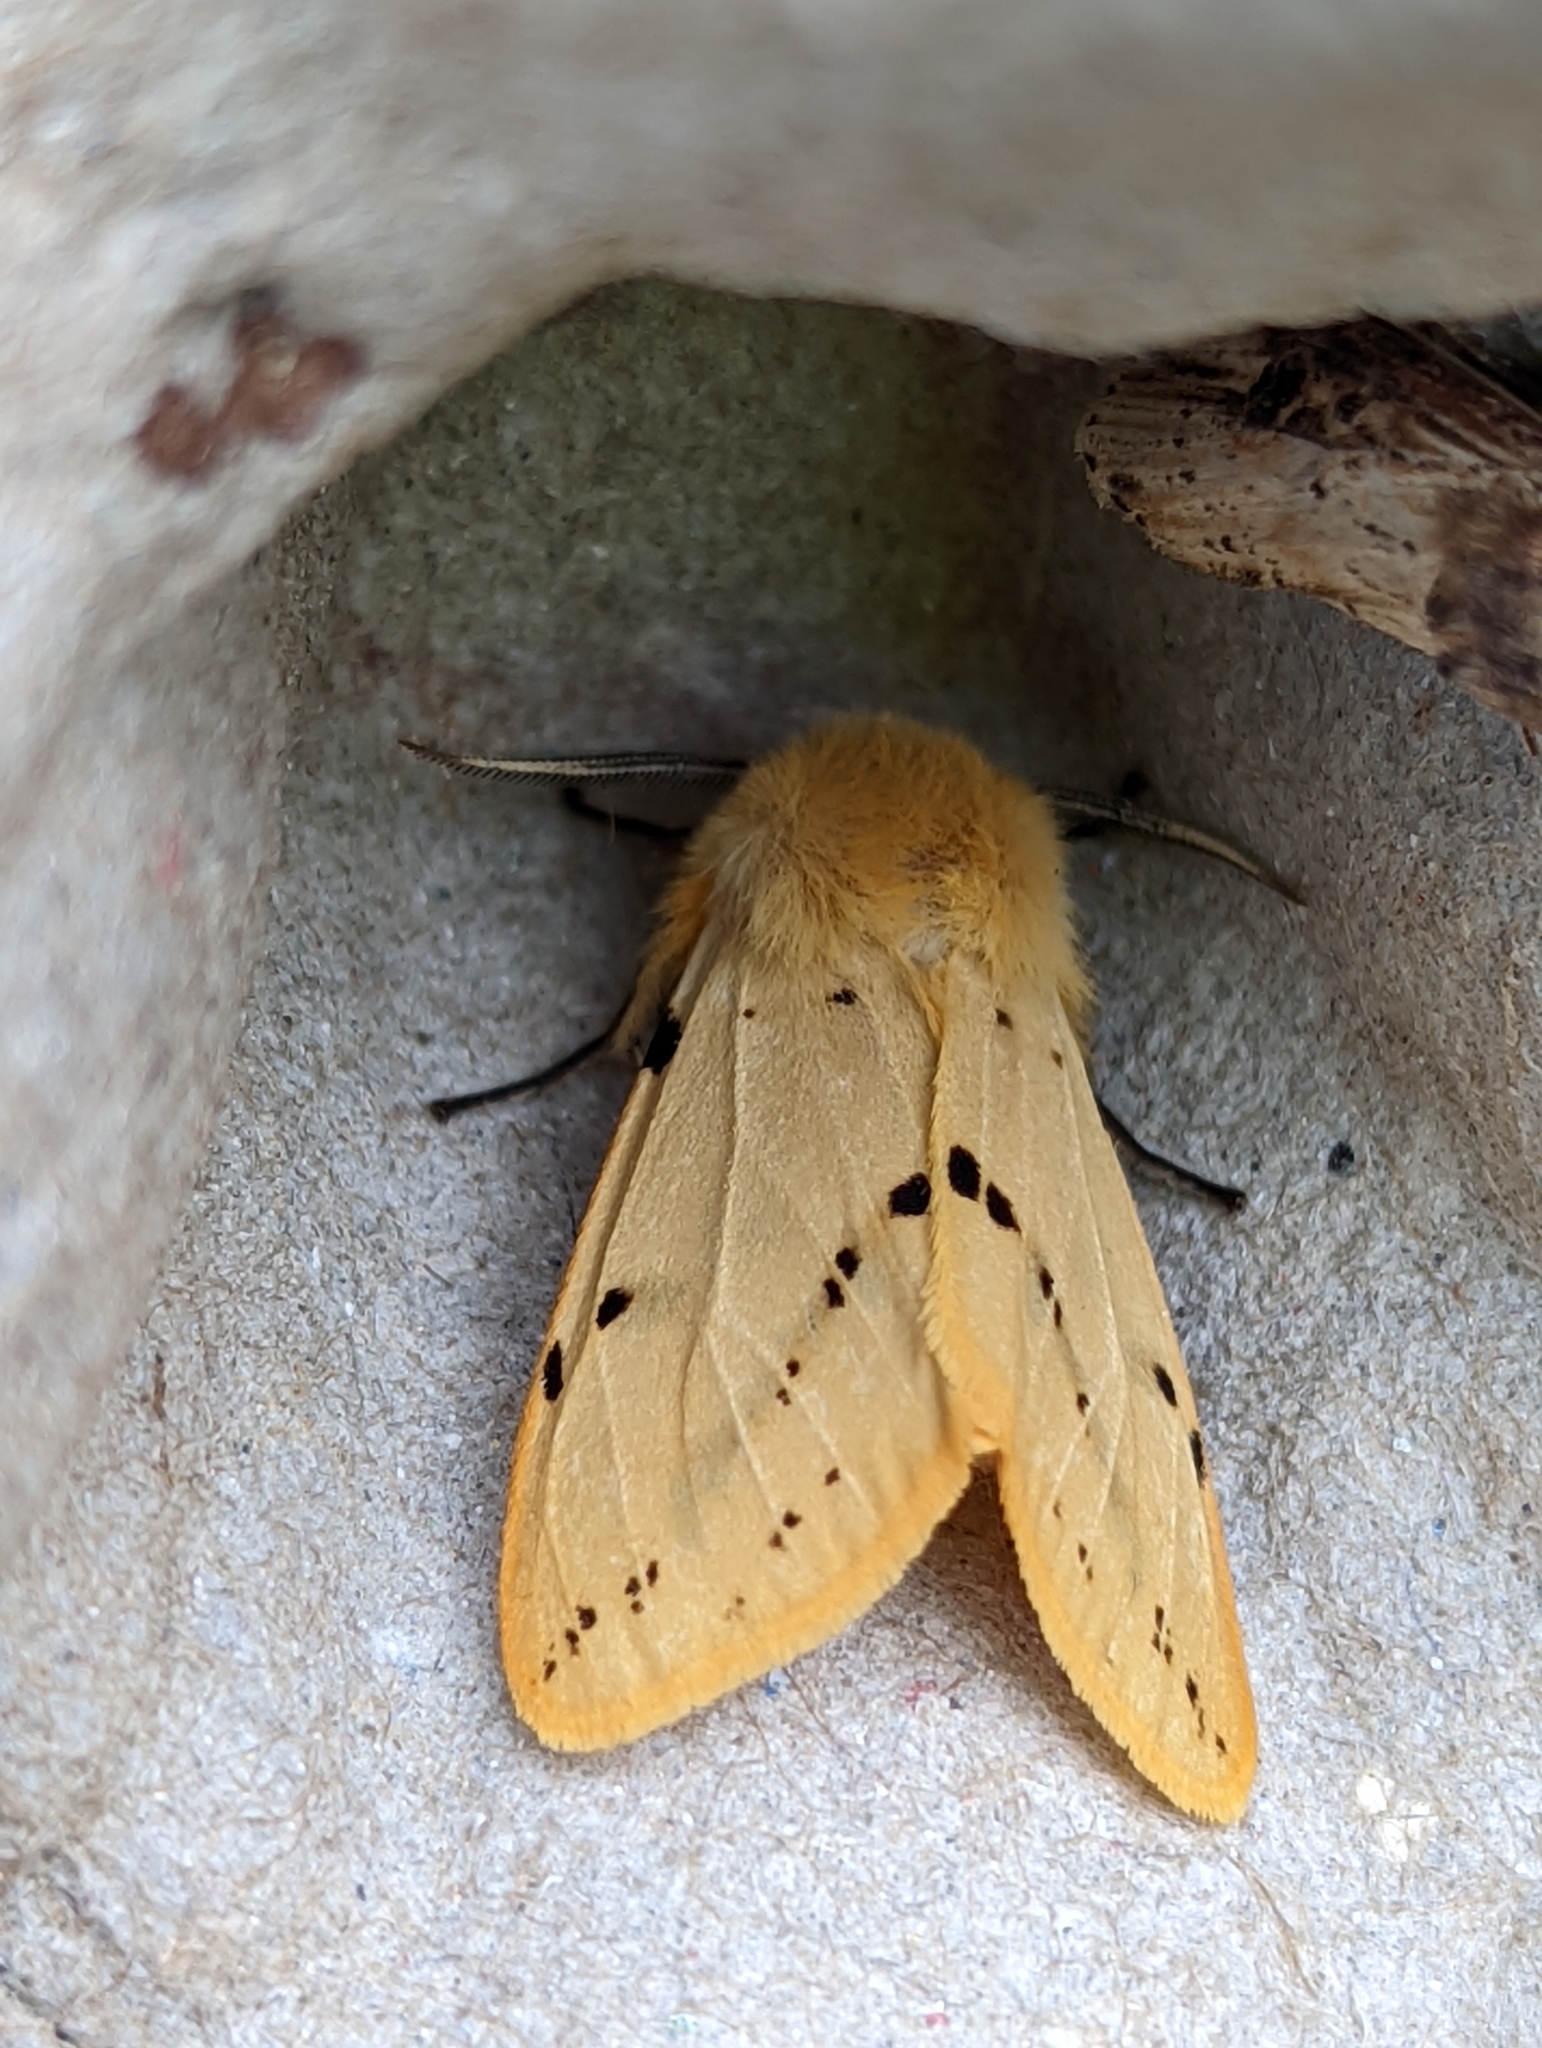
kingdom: Animalia
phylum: Arthropoda
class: Insecta
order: Lepidoptera
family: Erebidae
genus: Spilarctia
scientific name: Spilarctia lutea
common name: Buff ermine
